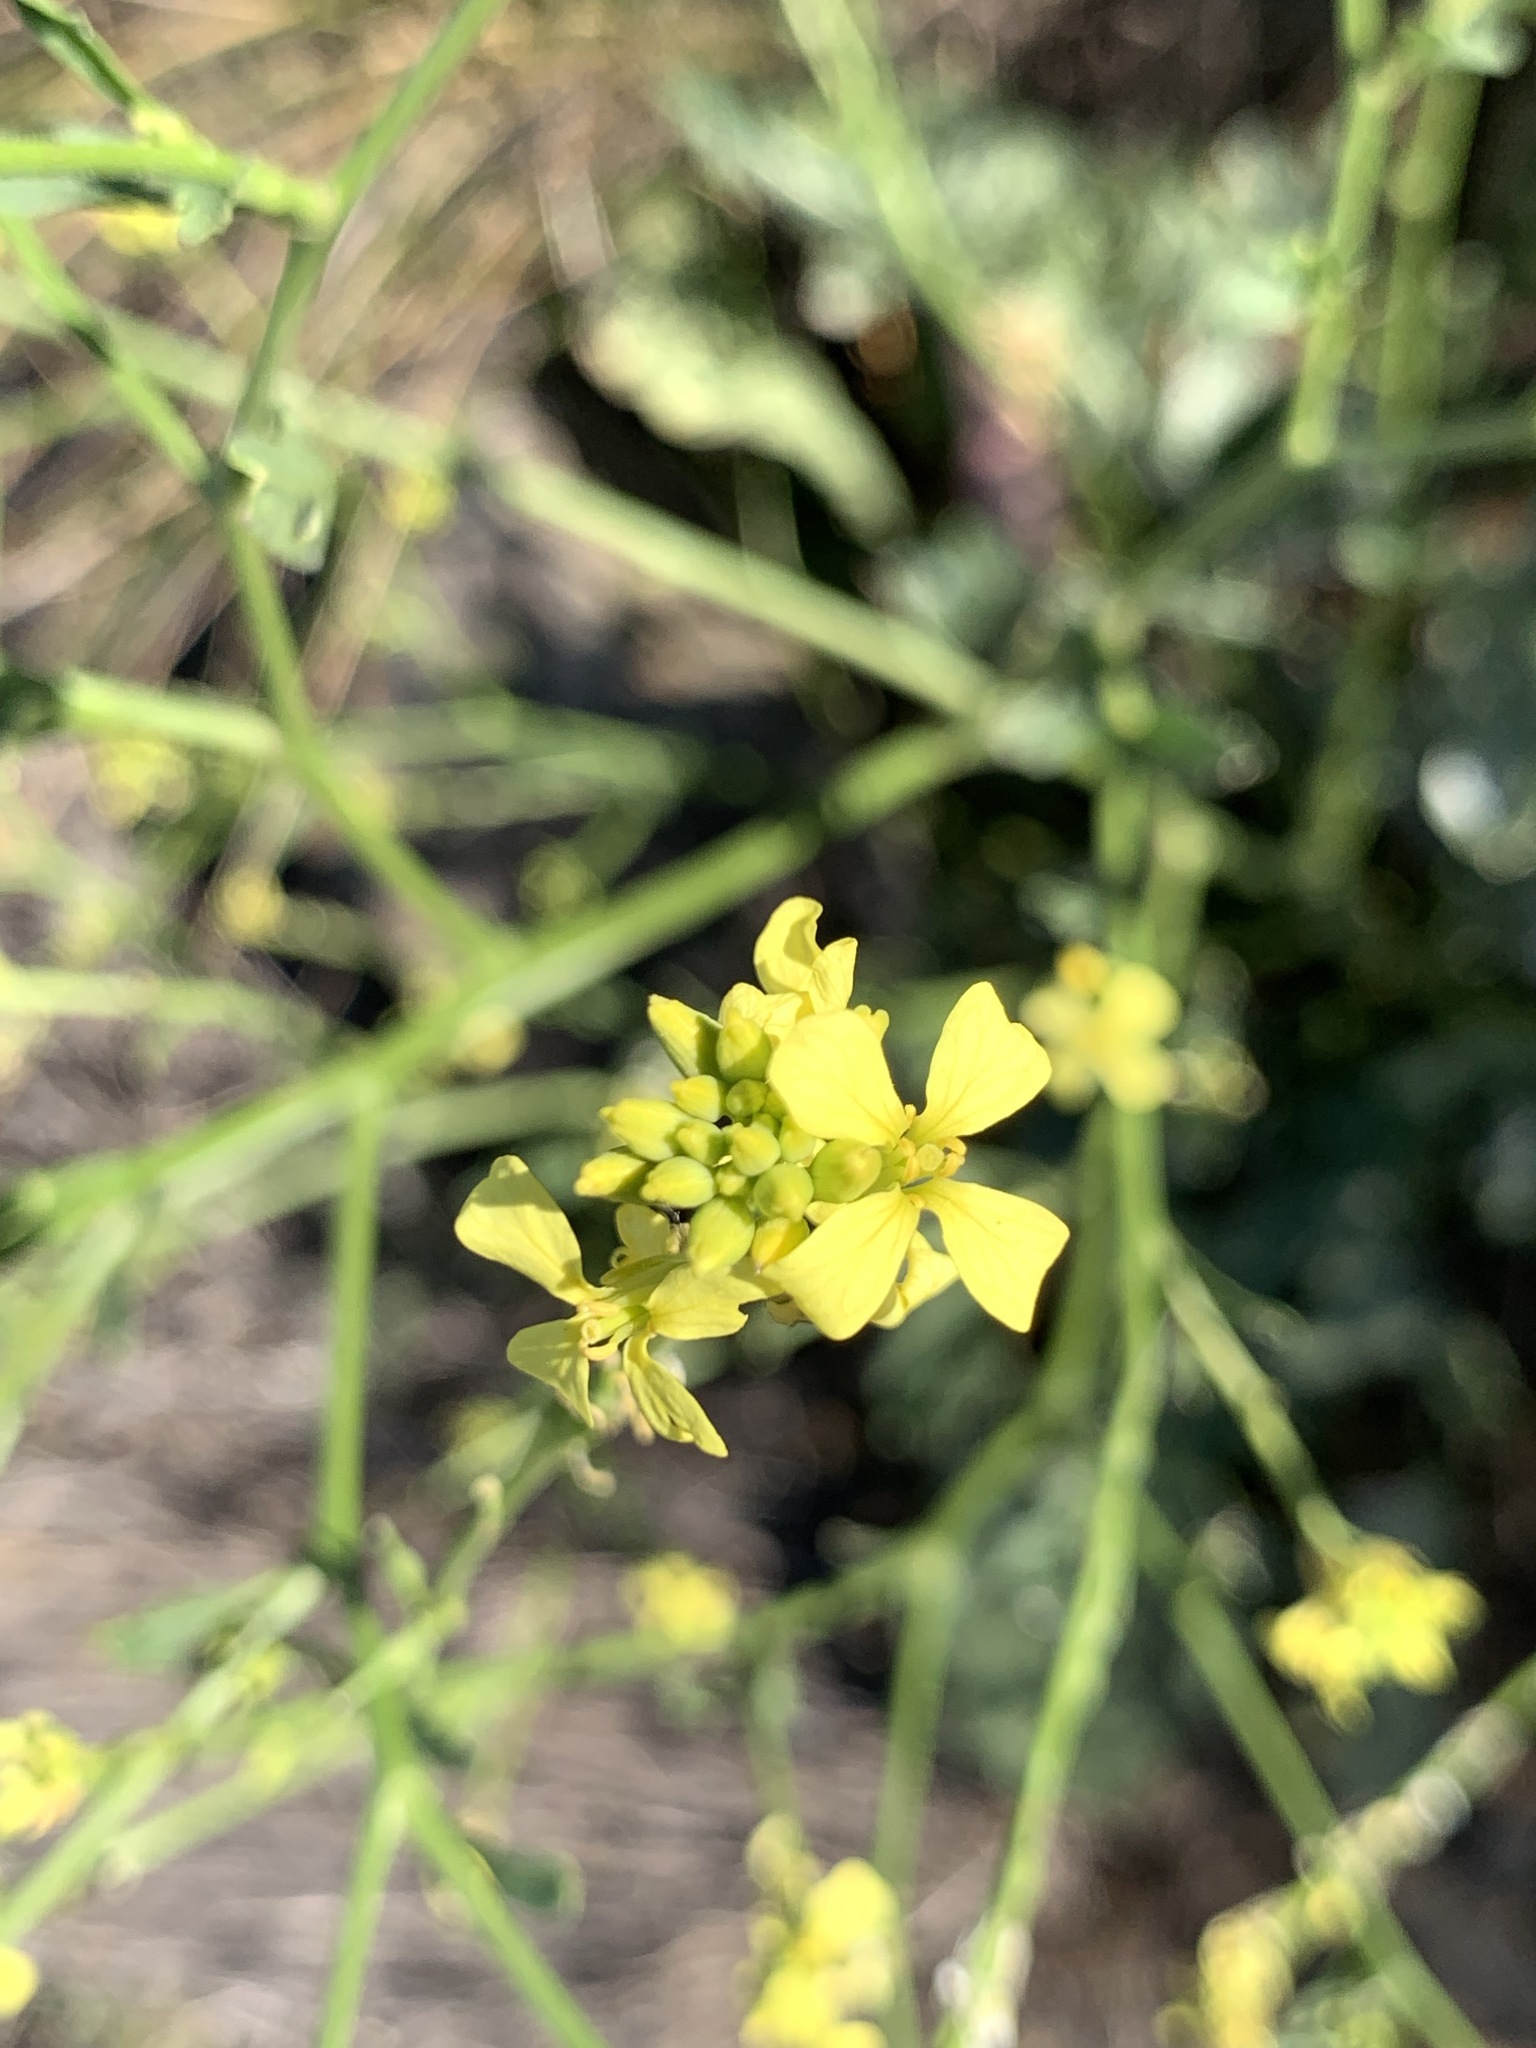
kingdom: Plantae
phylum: Tracheophyta
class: Magnoliopsida
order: Brassicales
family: Brassicaceae
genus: Rapistrum
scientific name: Rapistrum rugosum
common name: Annual bastardcabbage
